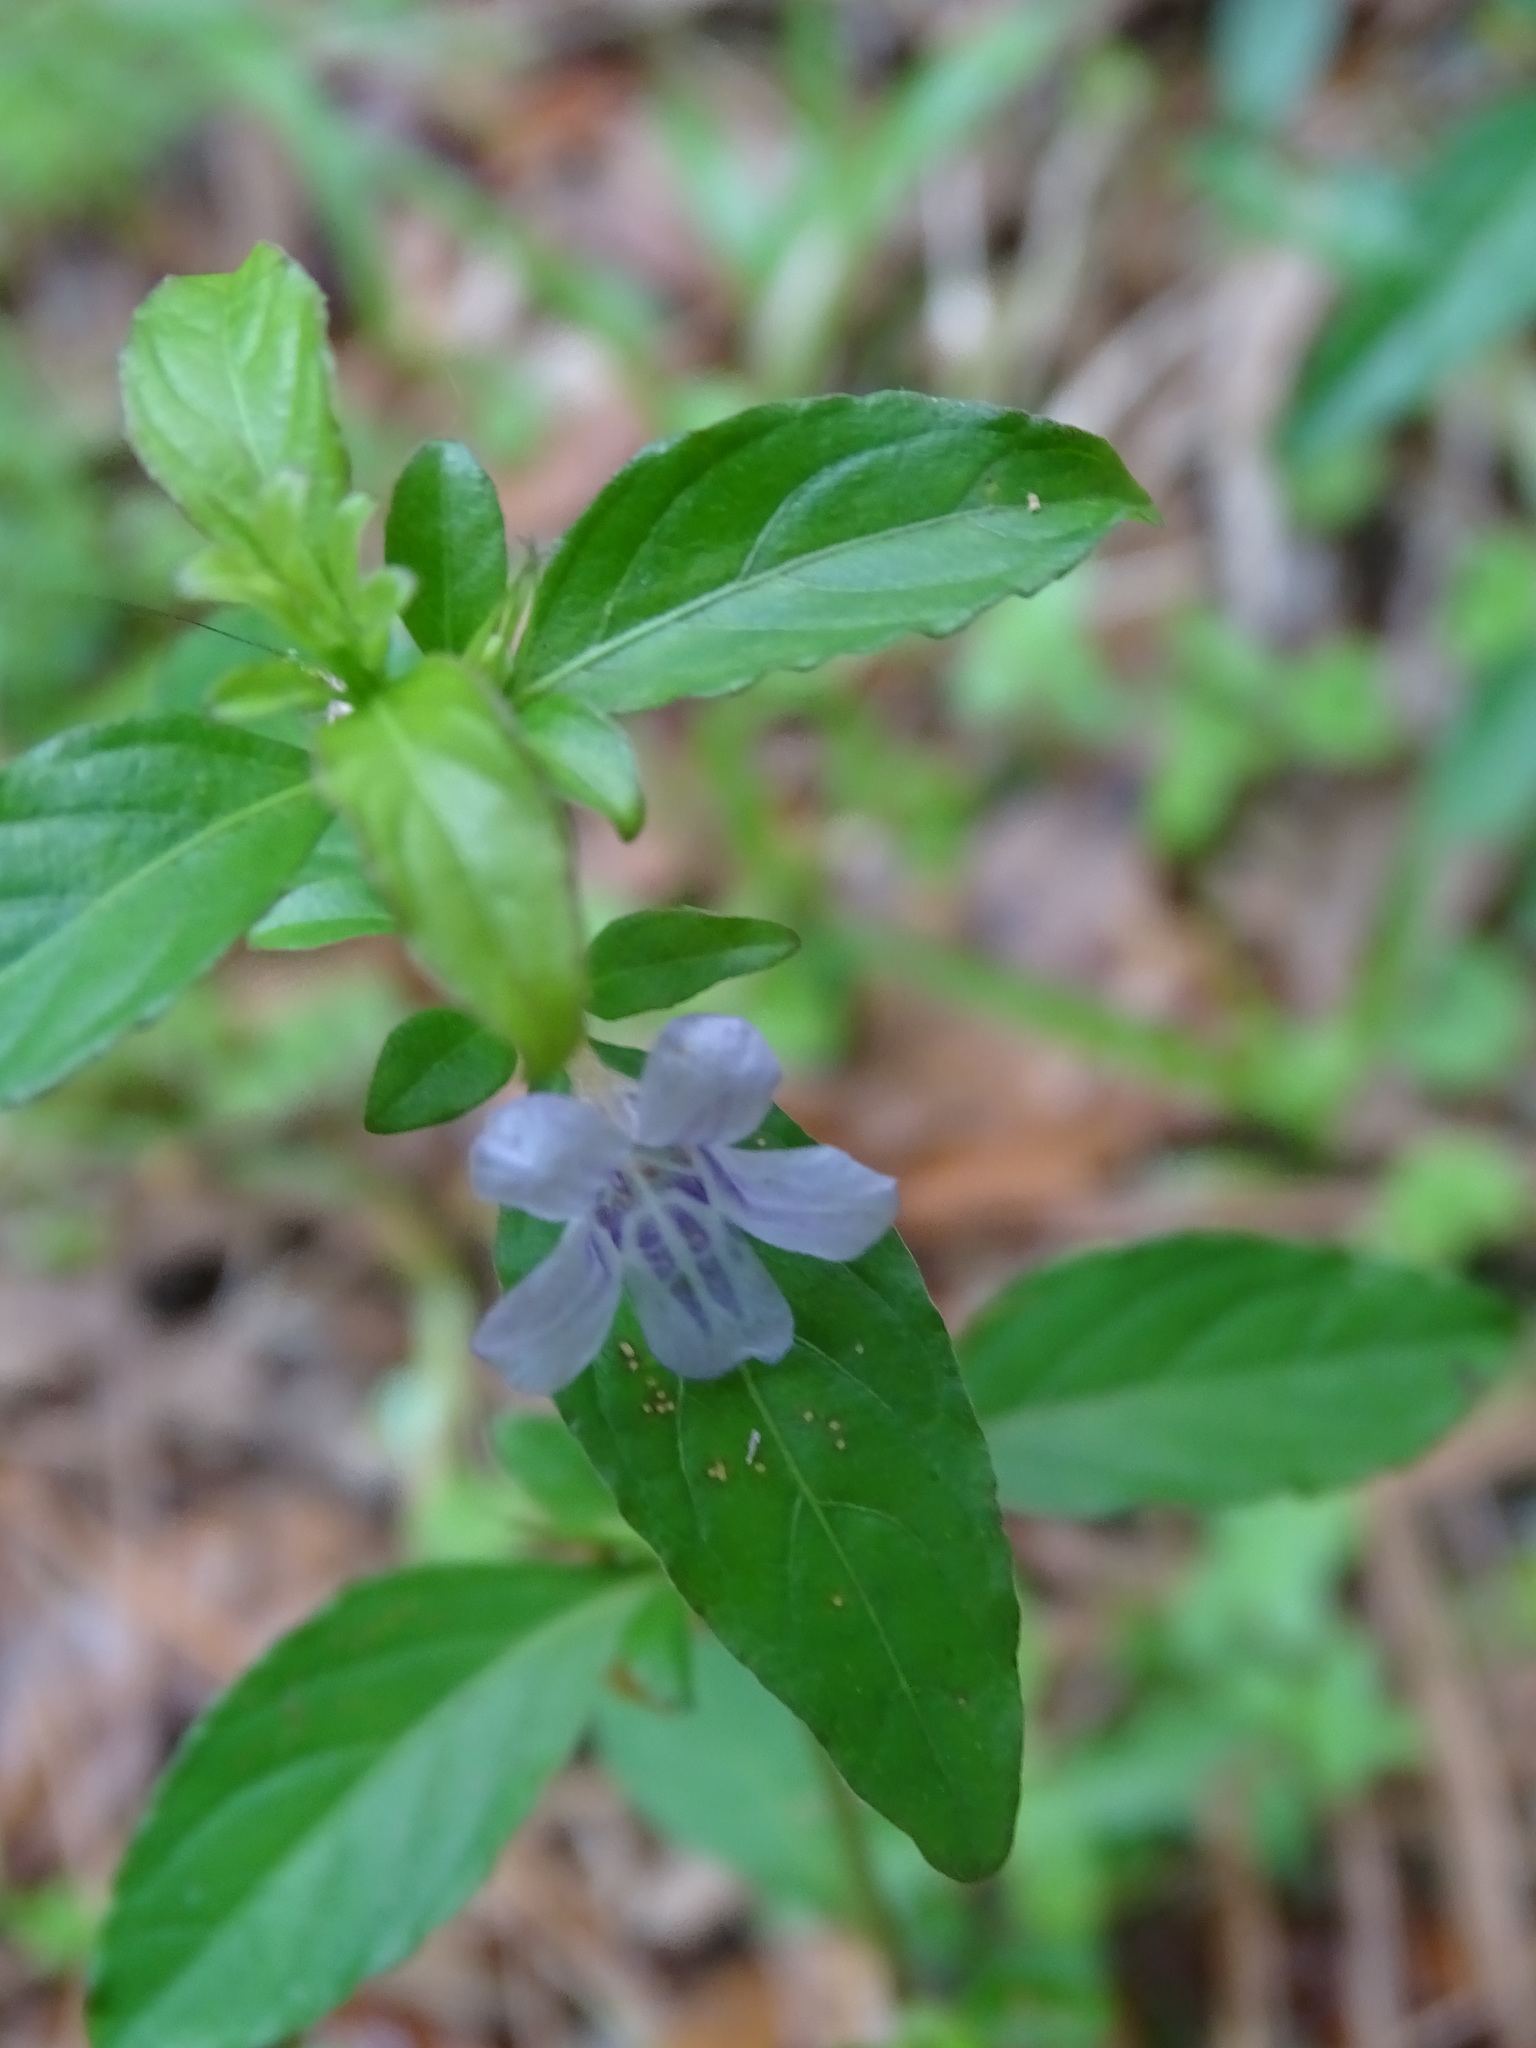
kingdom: Plantae
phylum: Tracheophyta
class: Magnoliopsida
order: Lamiales
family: Acanthaceae
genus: Dyschoriste
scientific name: Dyschoriste humistrata
